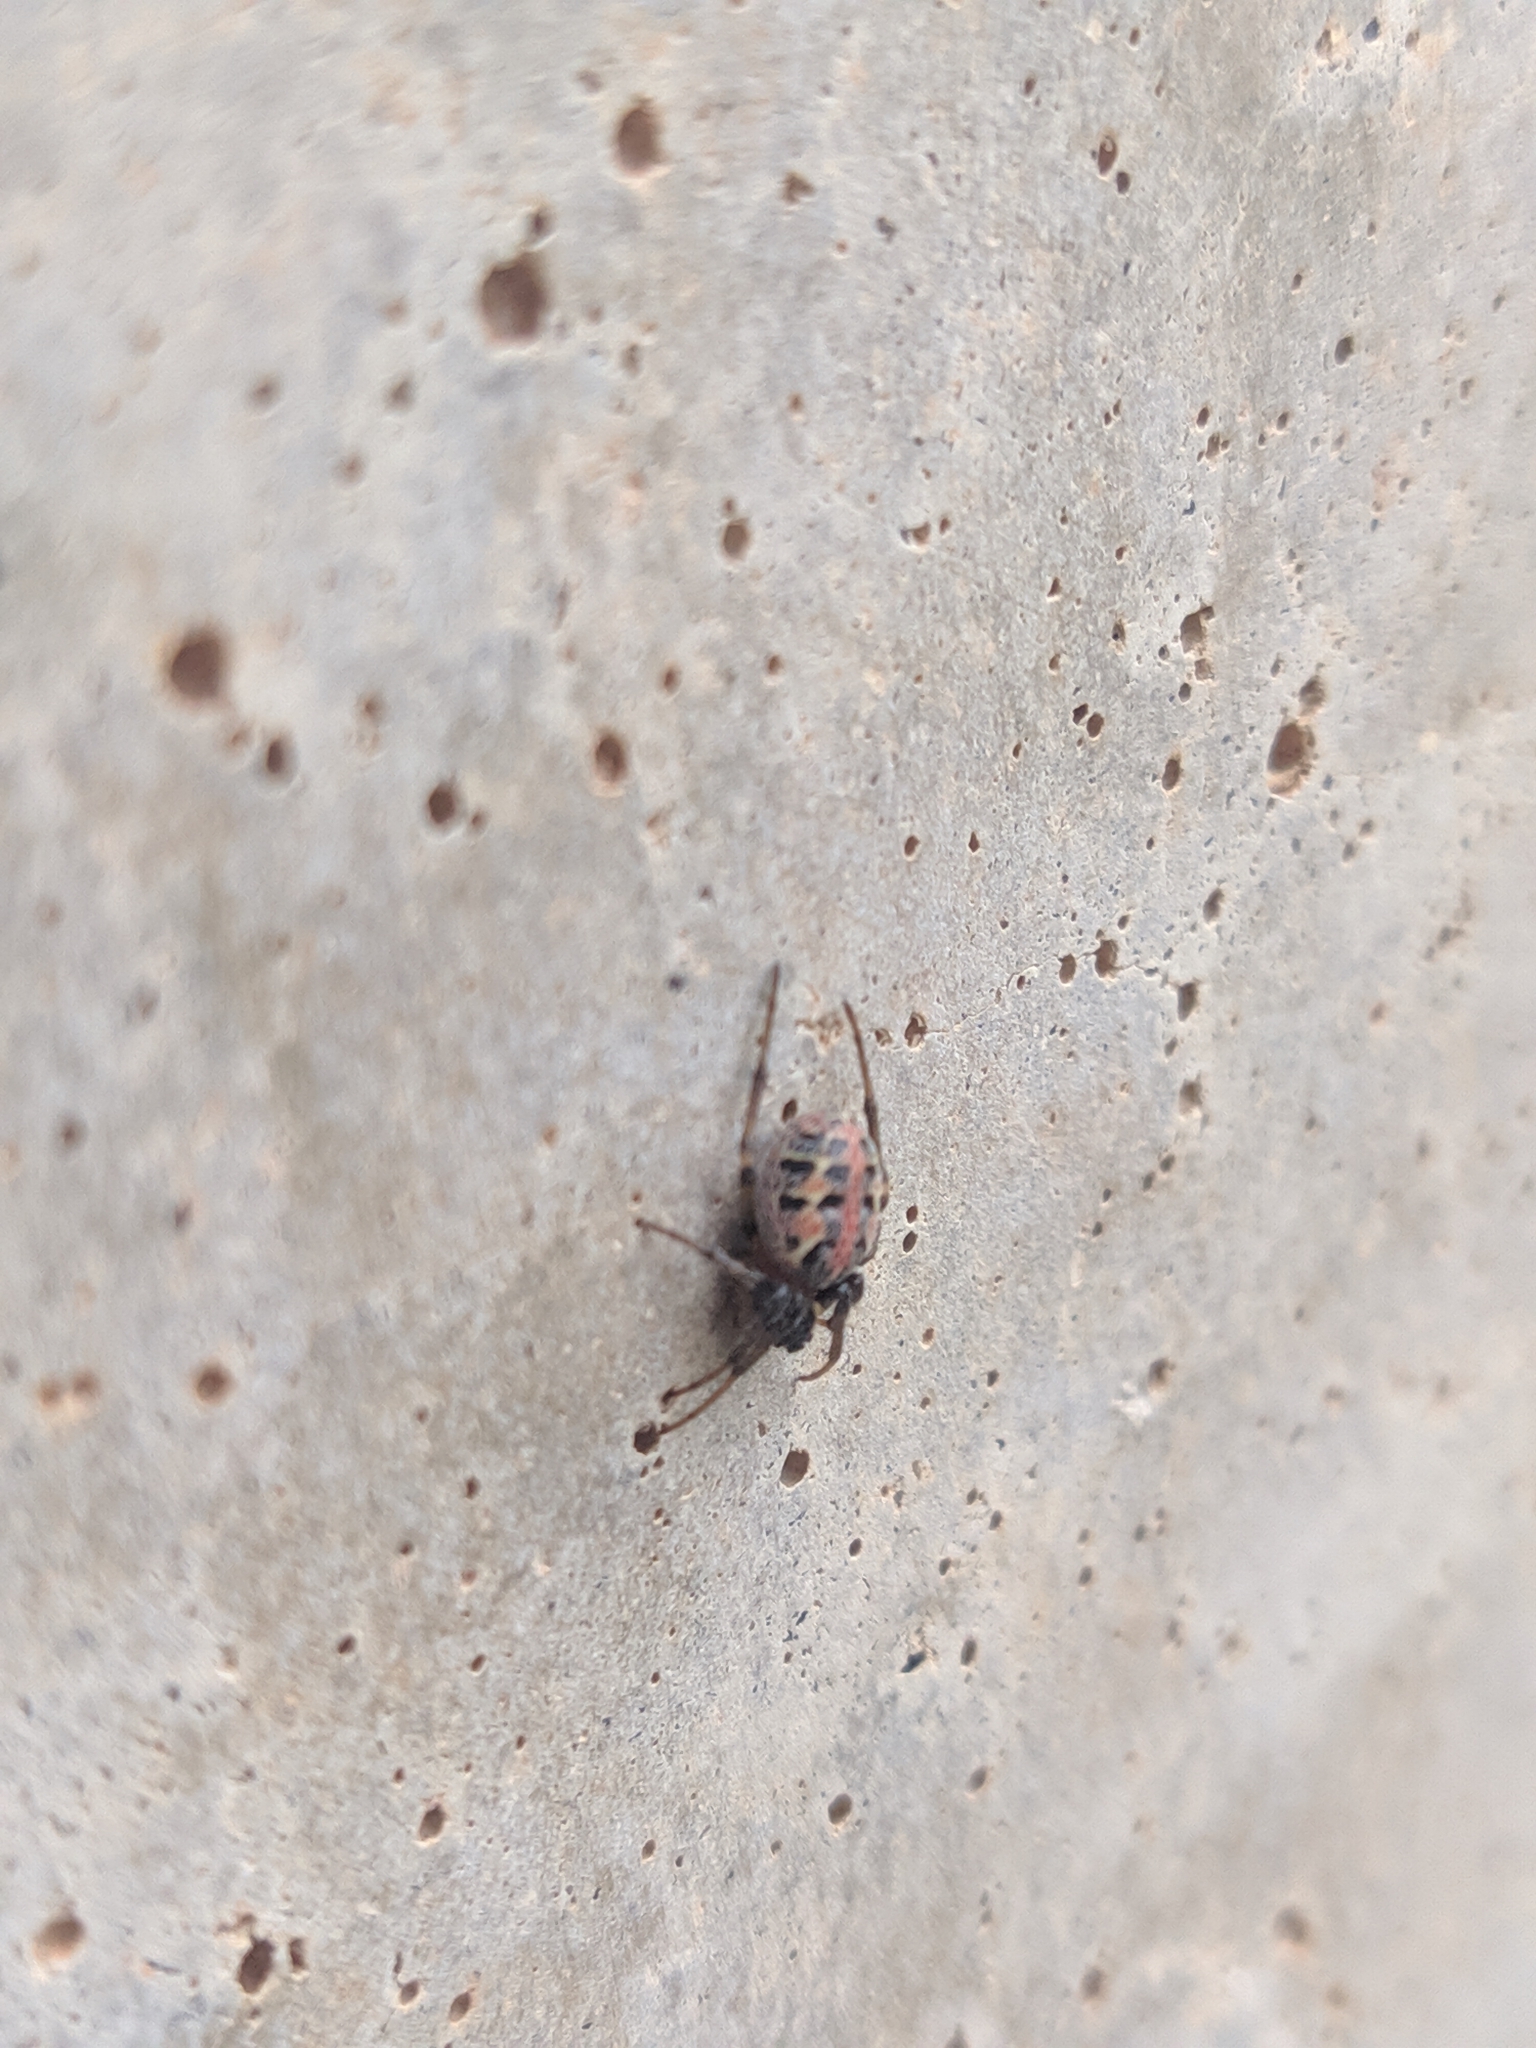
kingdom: Animalia
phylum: Arthropoda
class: Arachnida
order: Araneae
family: Araneidae
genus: Alpaida
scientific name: Alpaida versicolor
